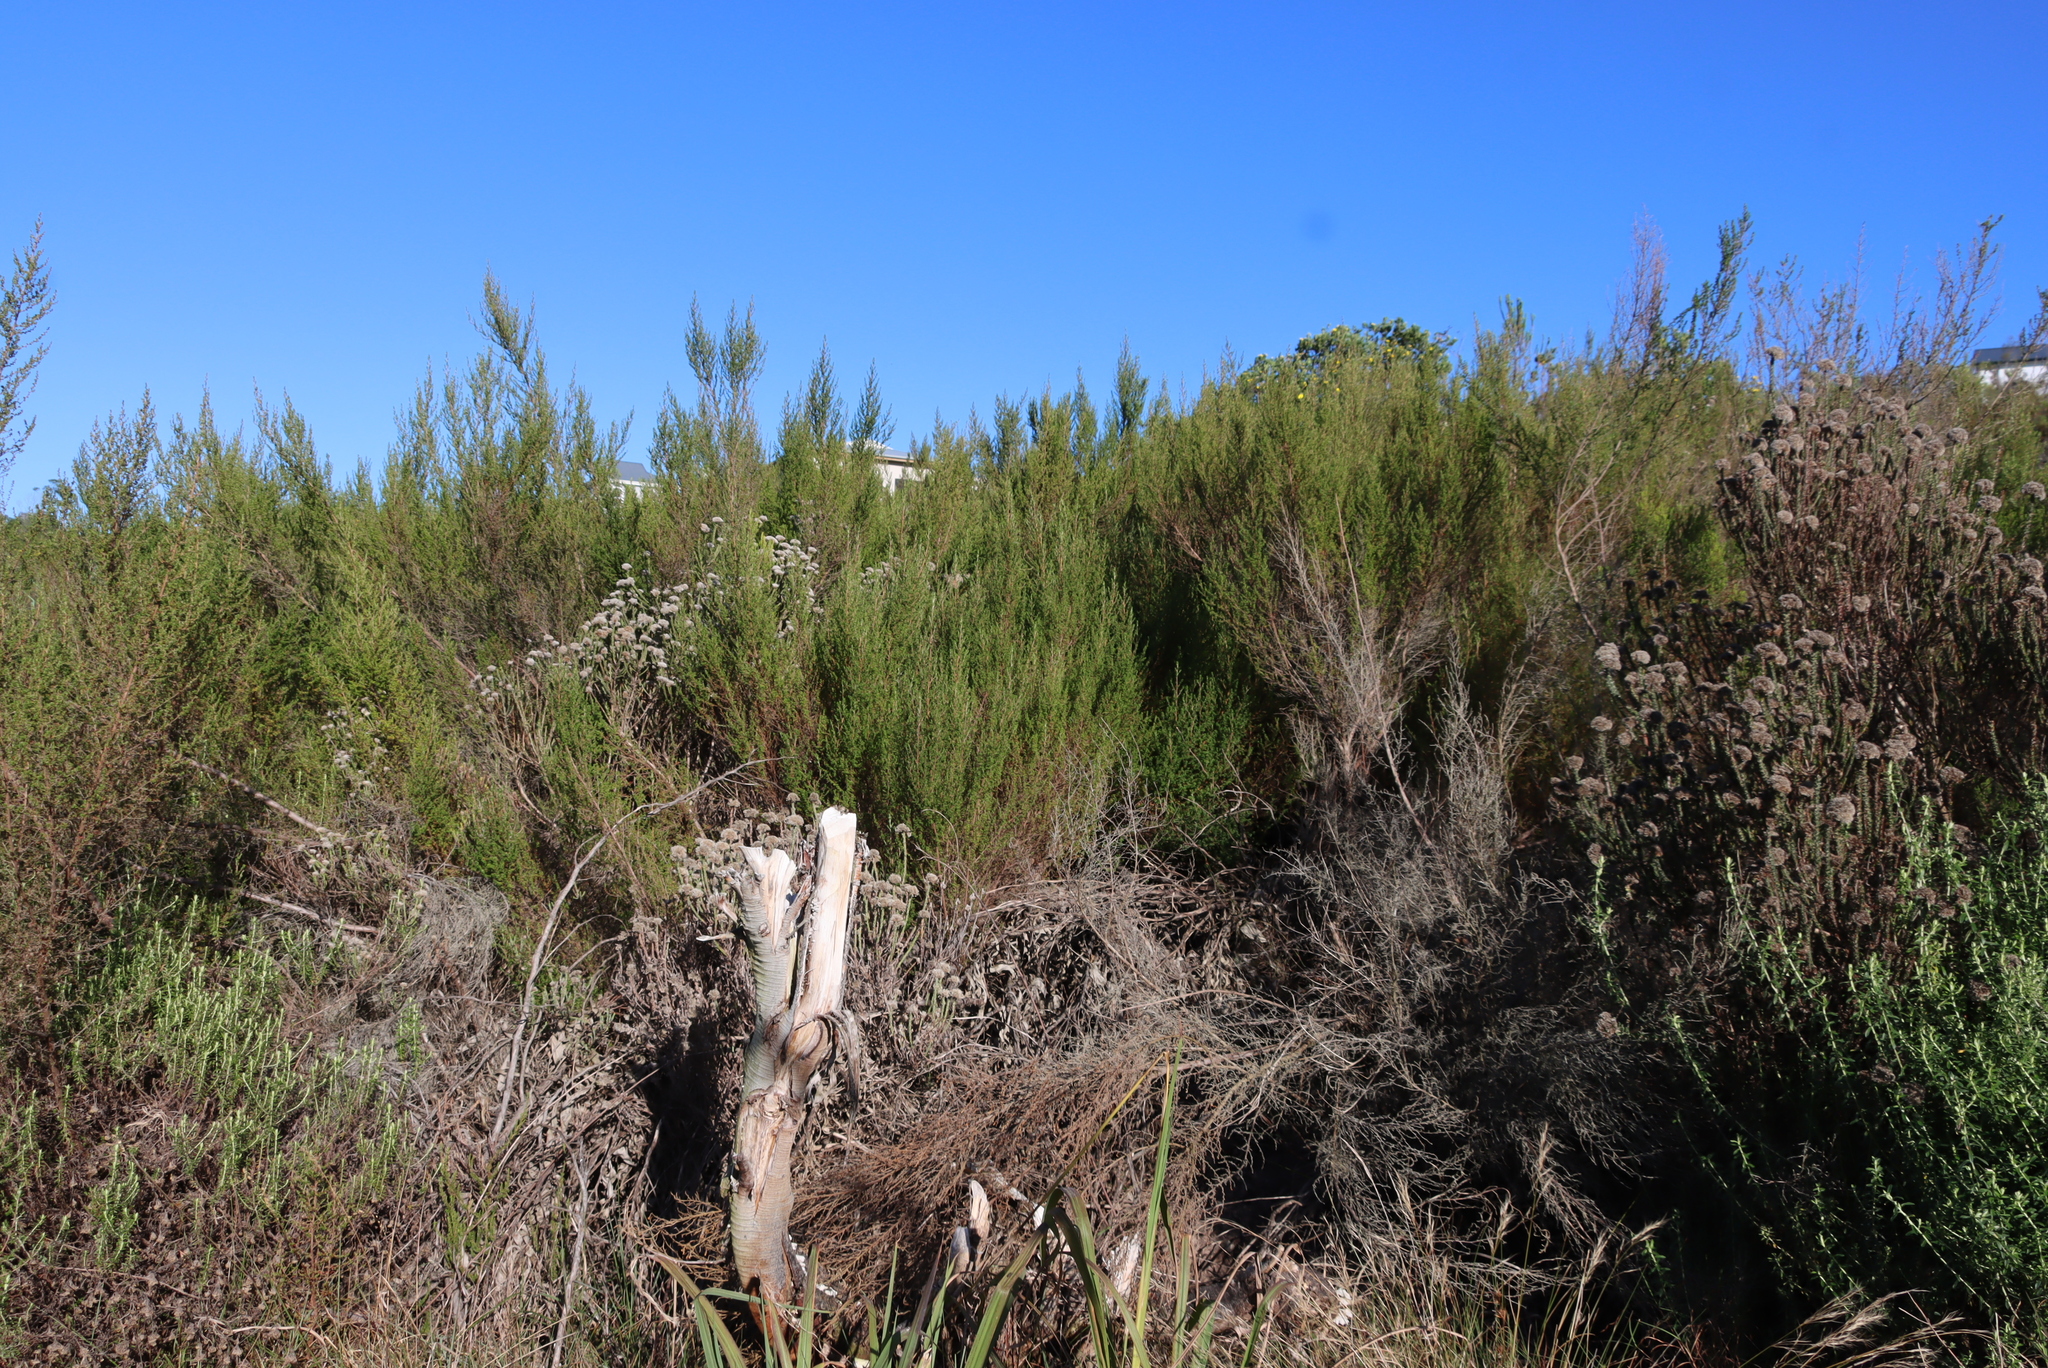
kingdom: Plantae
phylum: Tracheophyta
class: Magnoliopsida
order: Rosales
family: Rosaceae
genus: Cliffortia
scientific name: Cliffortia serpyllifolia
